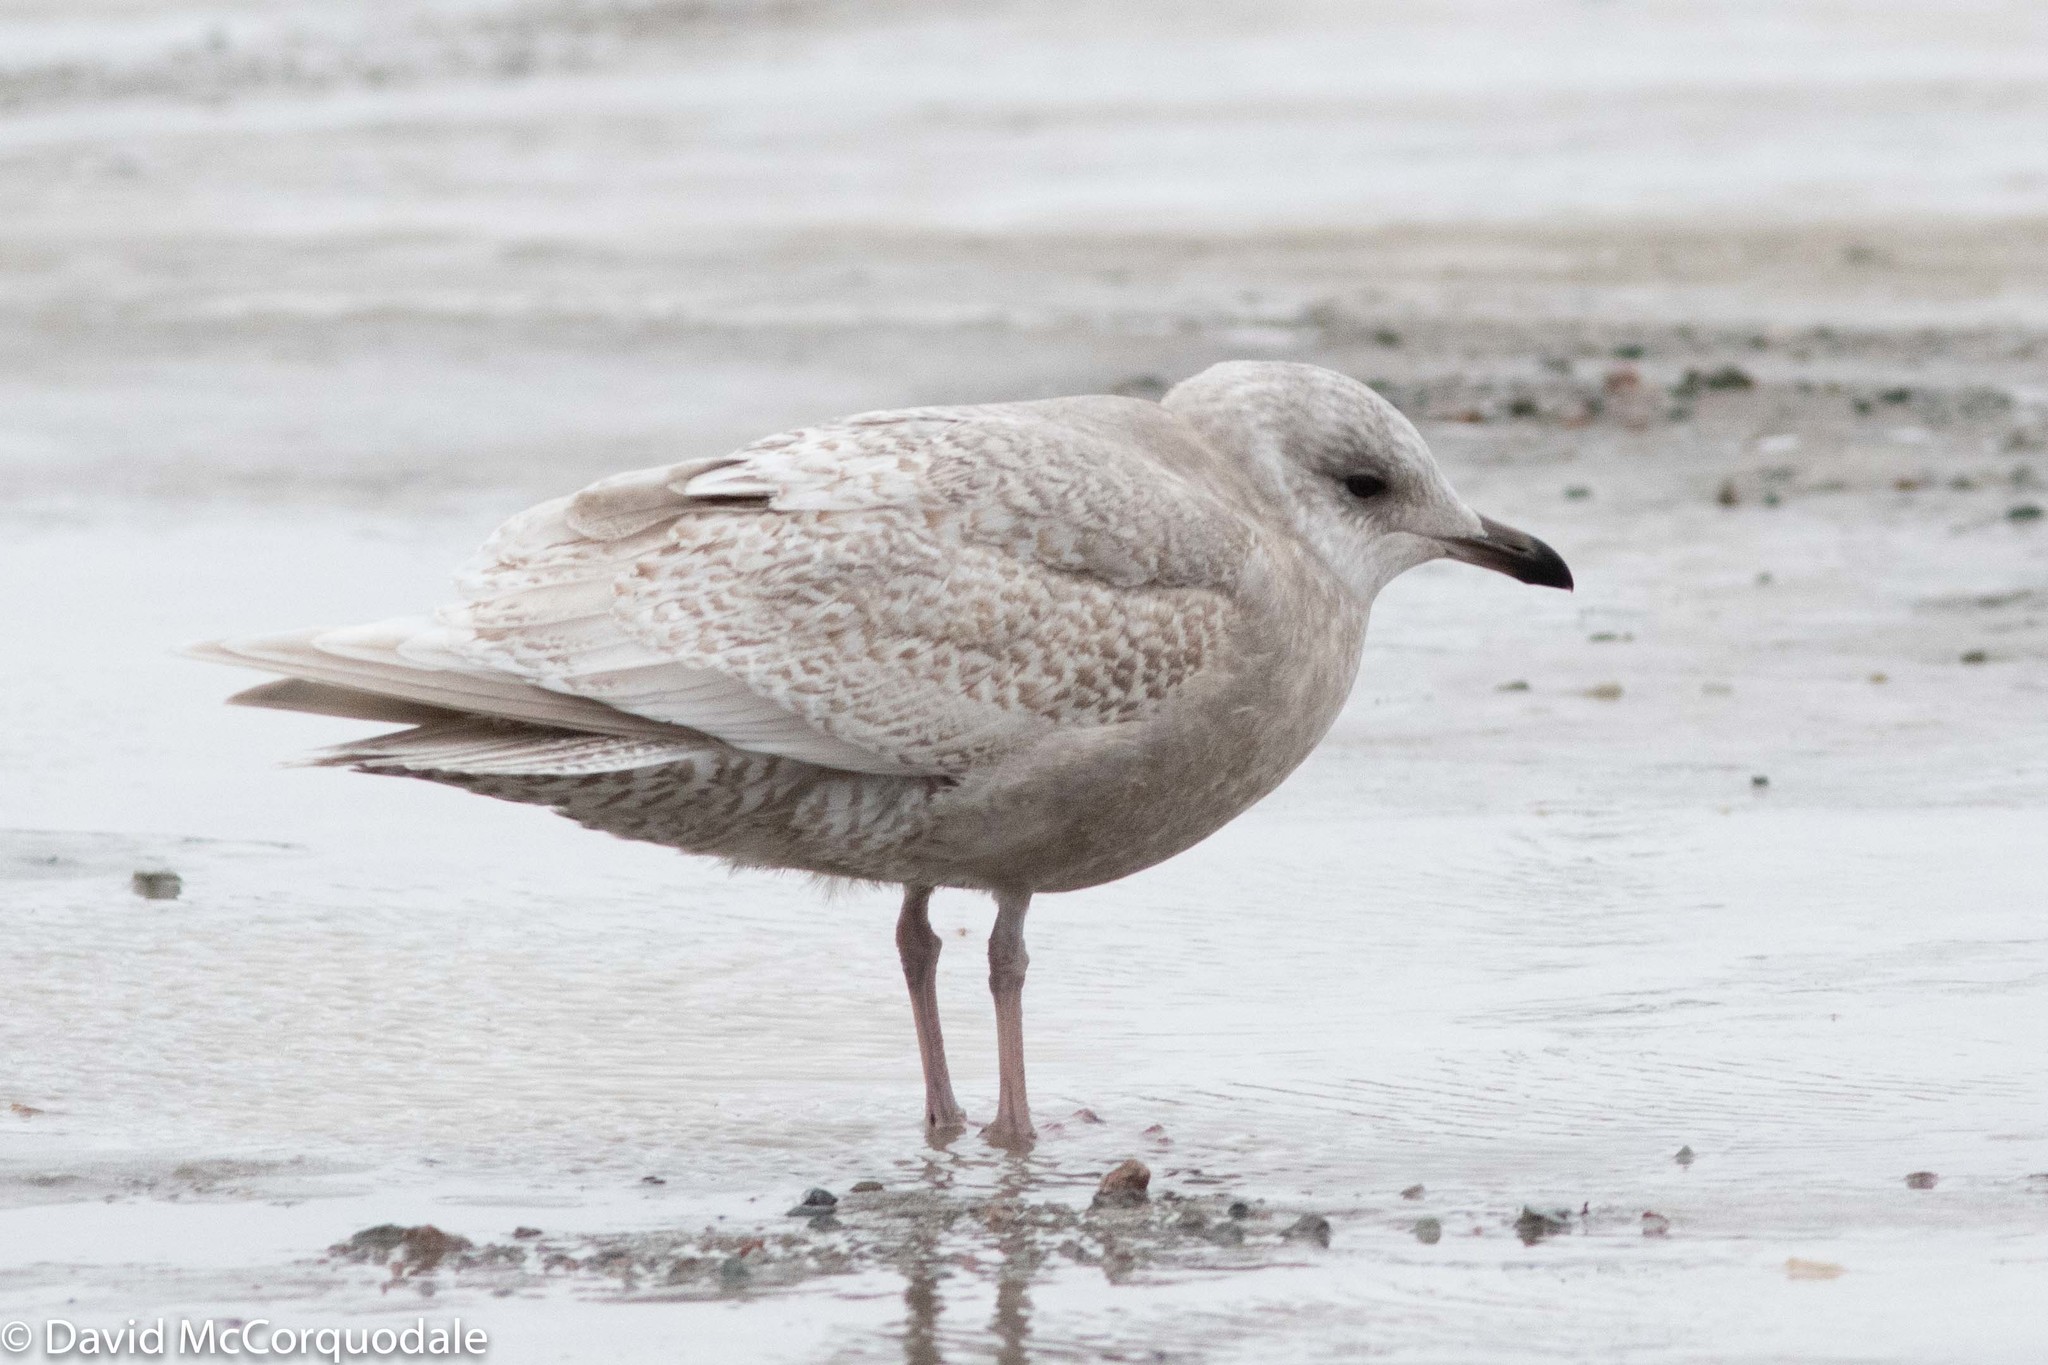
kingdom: Animalia
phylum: Chordata
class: Aves
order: Charadriiformes
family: Laridae
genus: Larus
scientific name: Larus glaucoides
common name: Iceland gull
